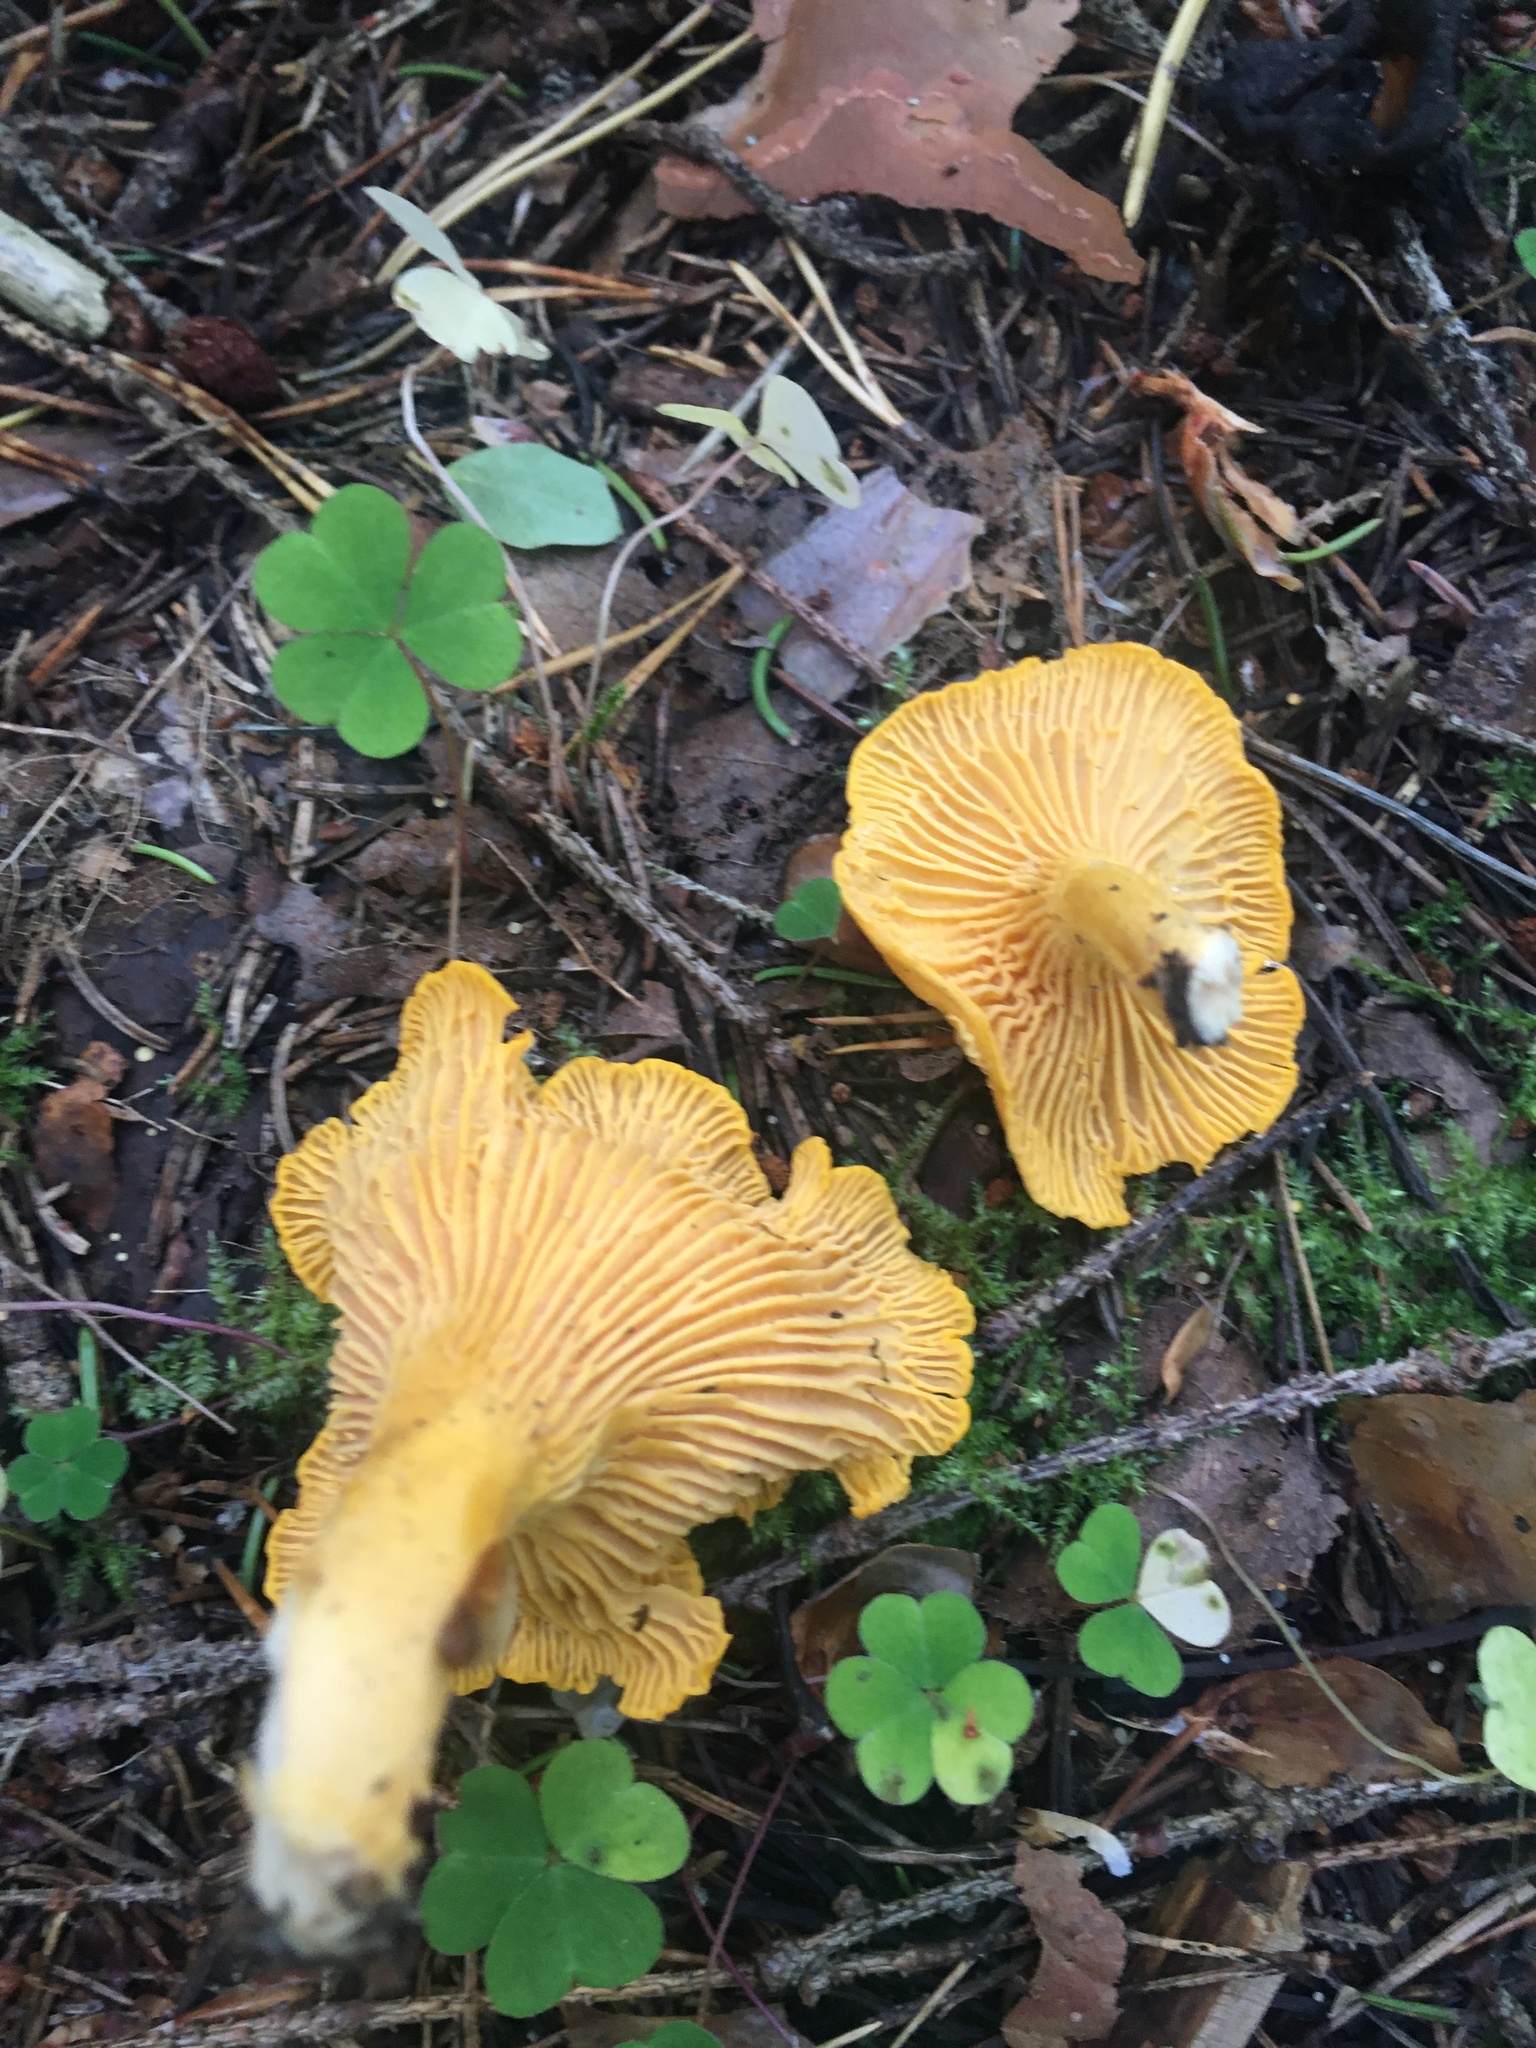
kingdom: Fungi
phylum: Basidiomycota
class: Agaricomycetes
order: Cantharellales
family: Hydnaceae
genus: Cantharellus
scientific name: Cantharellus cibarius
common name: Chanterelle
